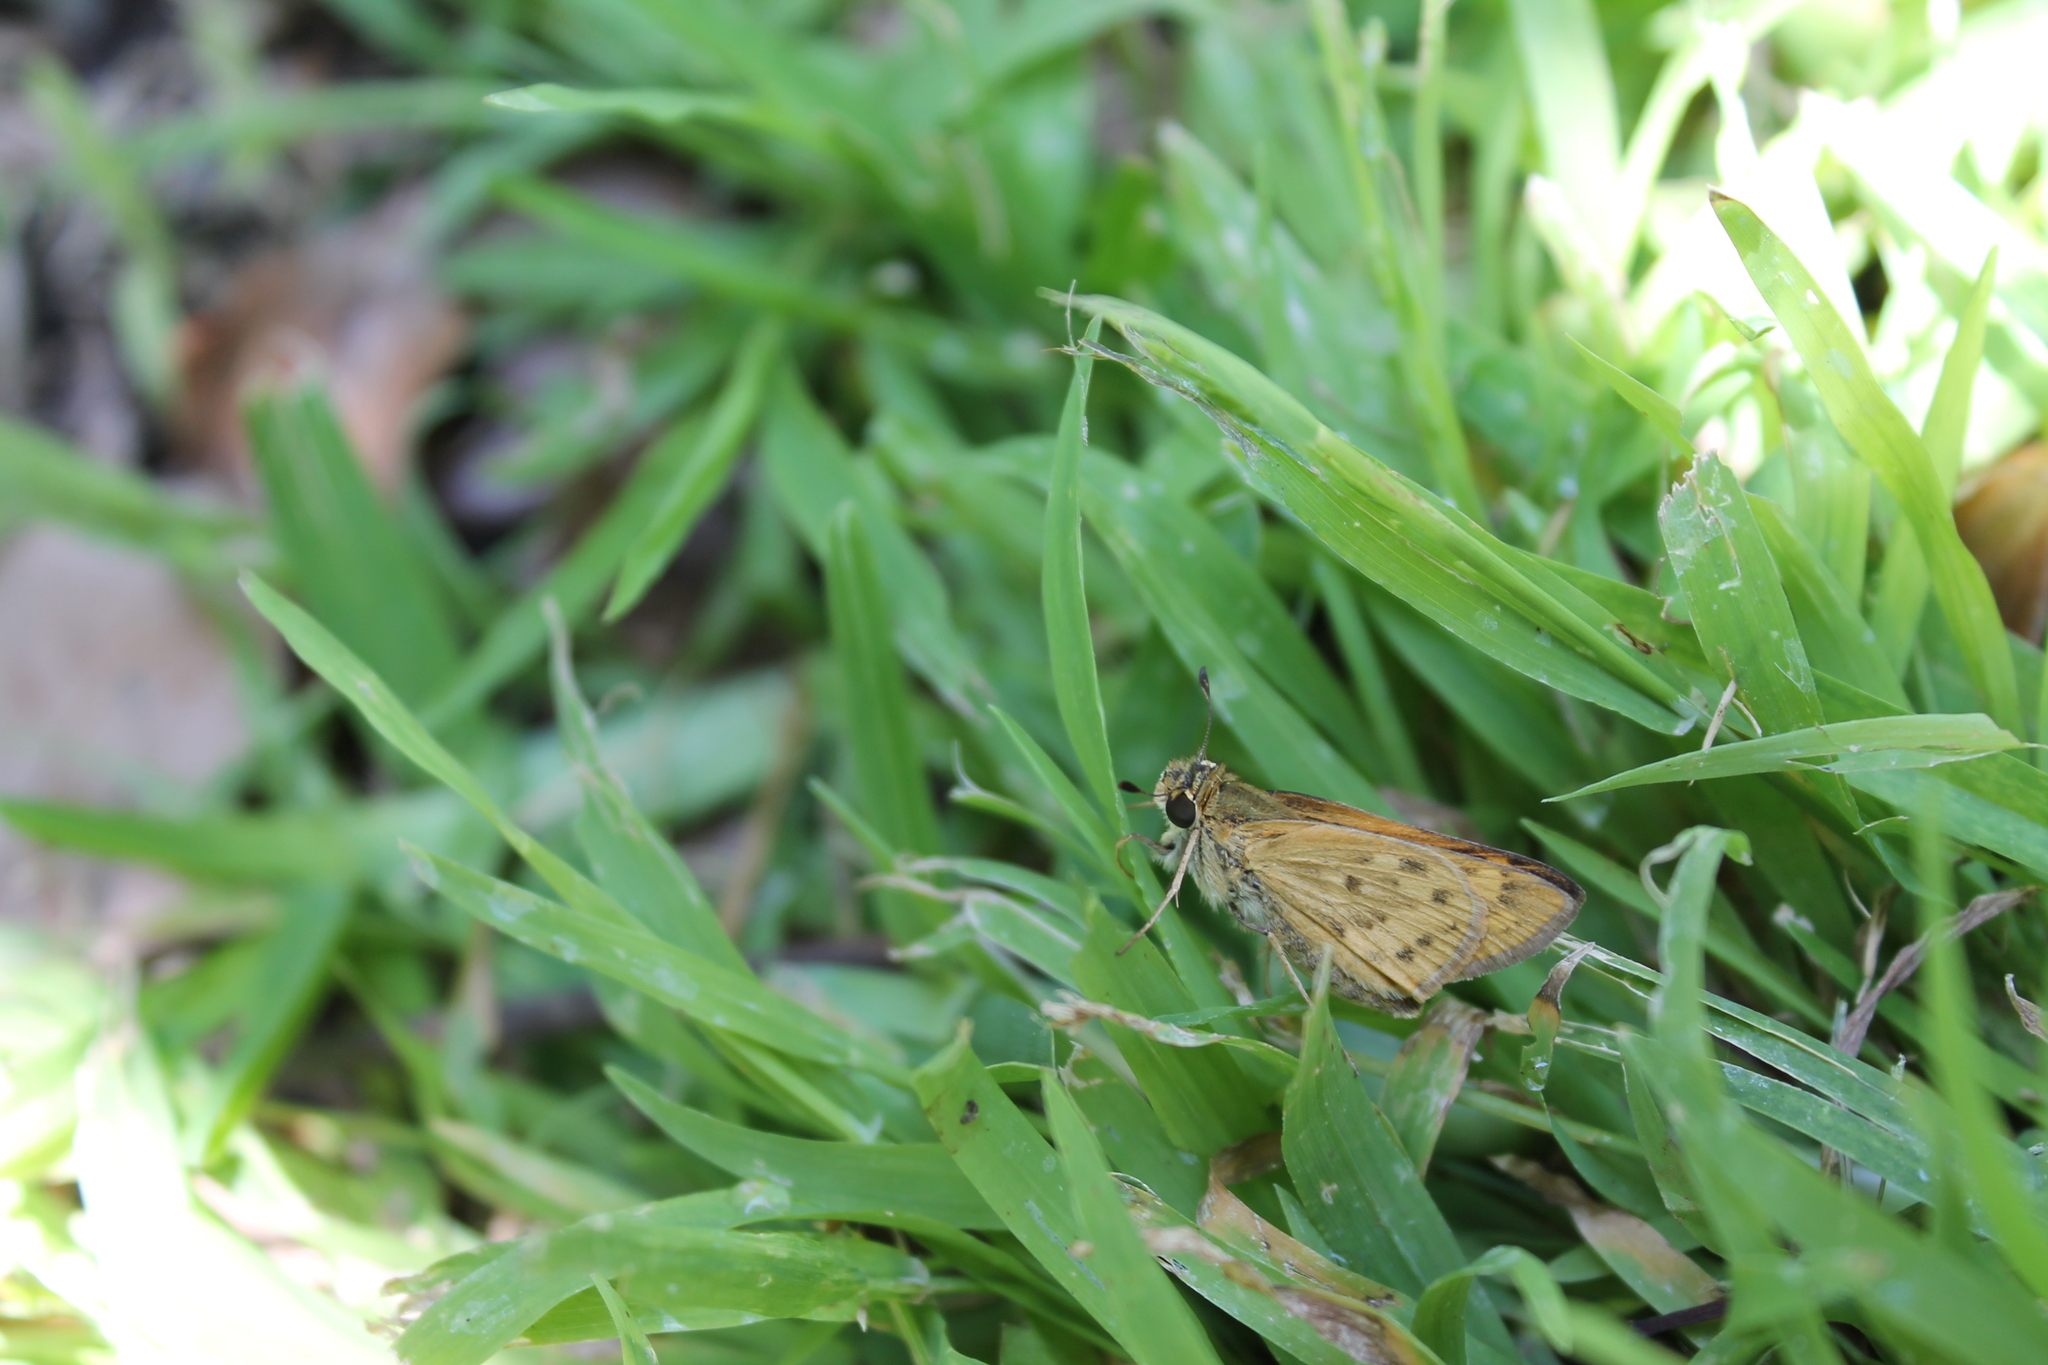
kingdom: Animalia
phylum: Arthropoda
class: Insecta
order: Lepidoptera
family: Hesperiidae
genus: Hylephila
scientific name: Hylephila phyleus
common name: Fiery skipper
